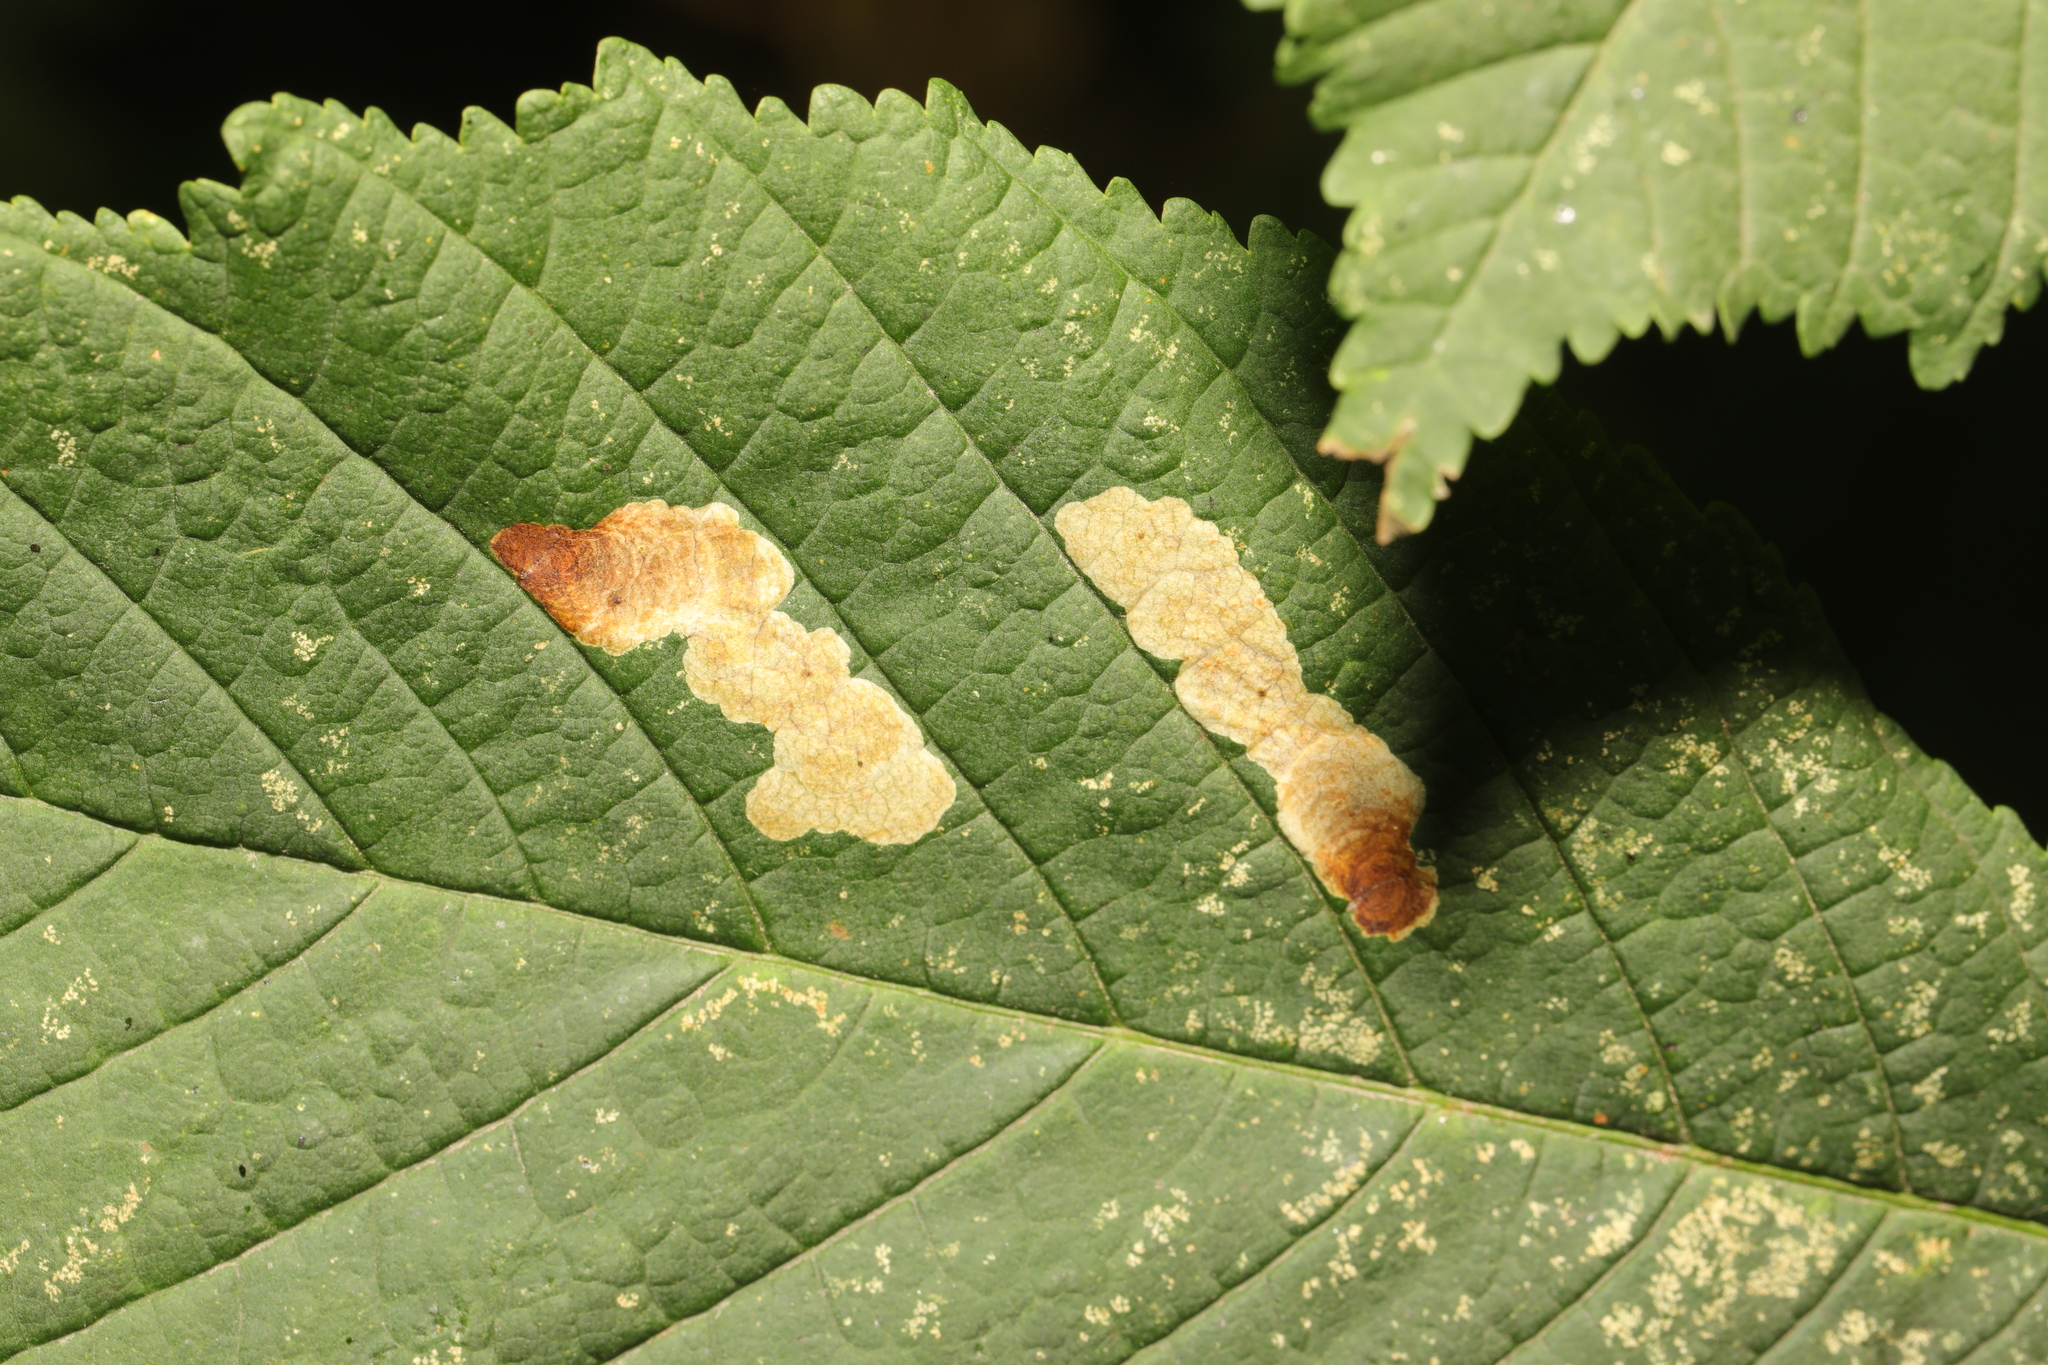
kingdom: Animalia
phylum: Arthropoda
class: Insecta
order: Lepidoptera
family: Gracillariidae
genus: Cameraria
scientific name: Cameraria ohridella
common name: Horse-chestnut leaf-miner
